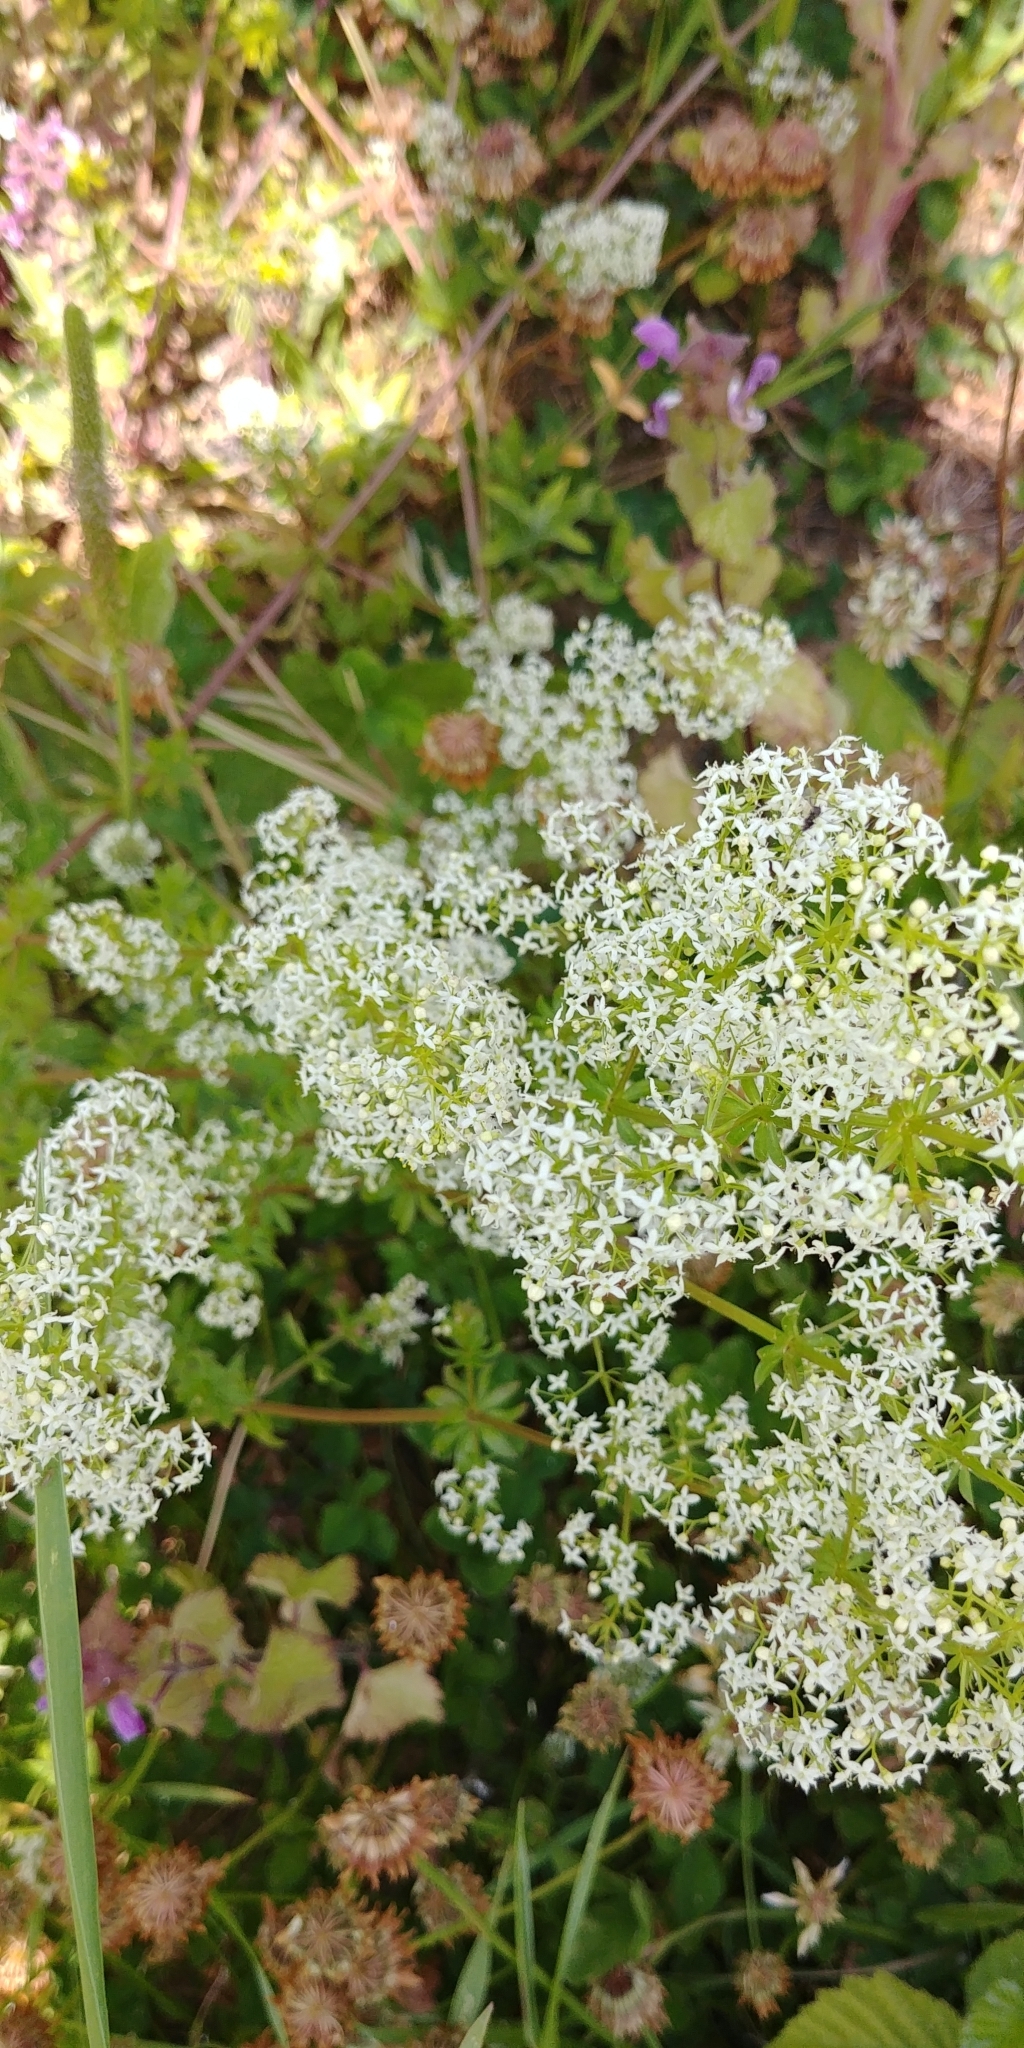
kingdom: Plantae
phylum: Tracheophyta
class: Magnoliopsida
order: Gentianales
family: Rubiaceae
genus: Galium
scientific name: Galium mollugo
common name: Hedge bedstraw
